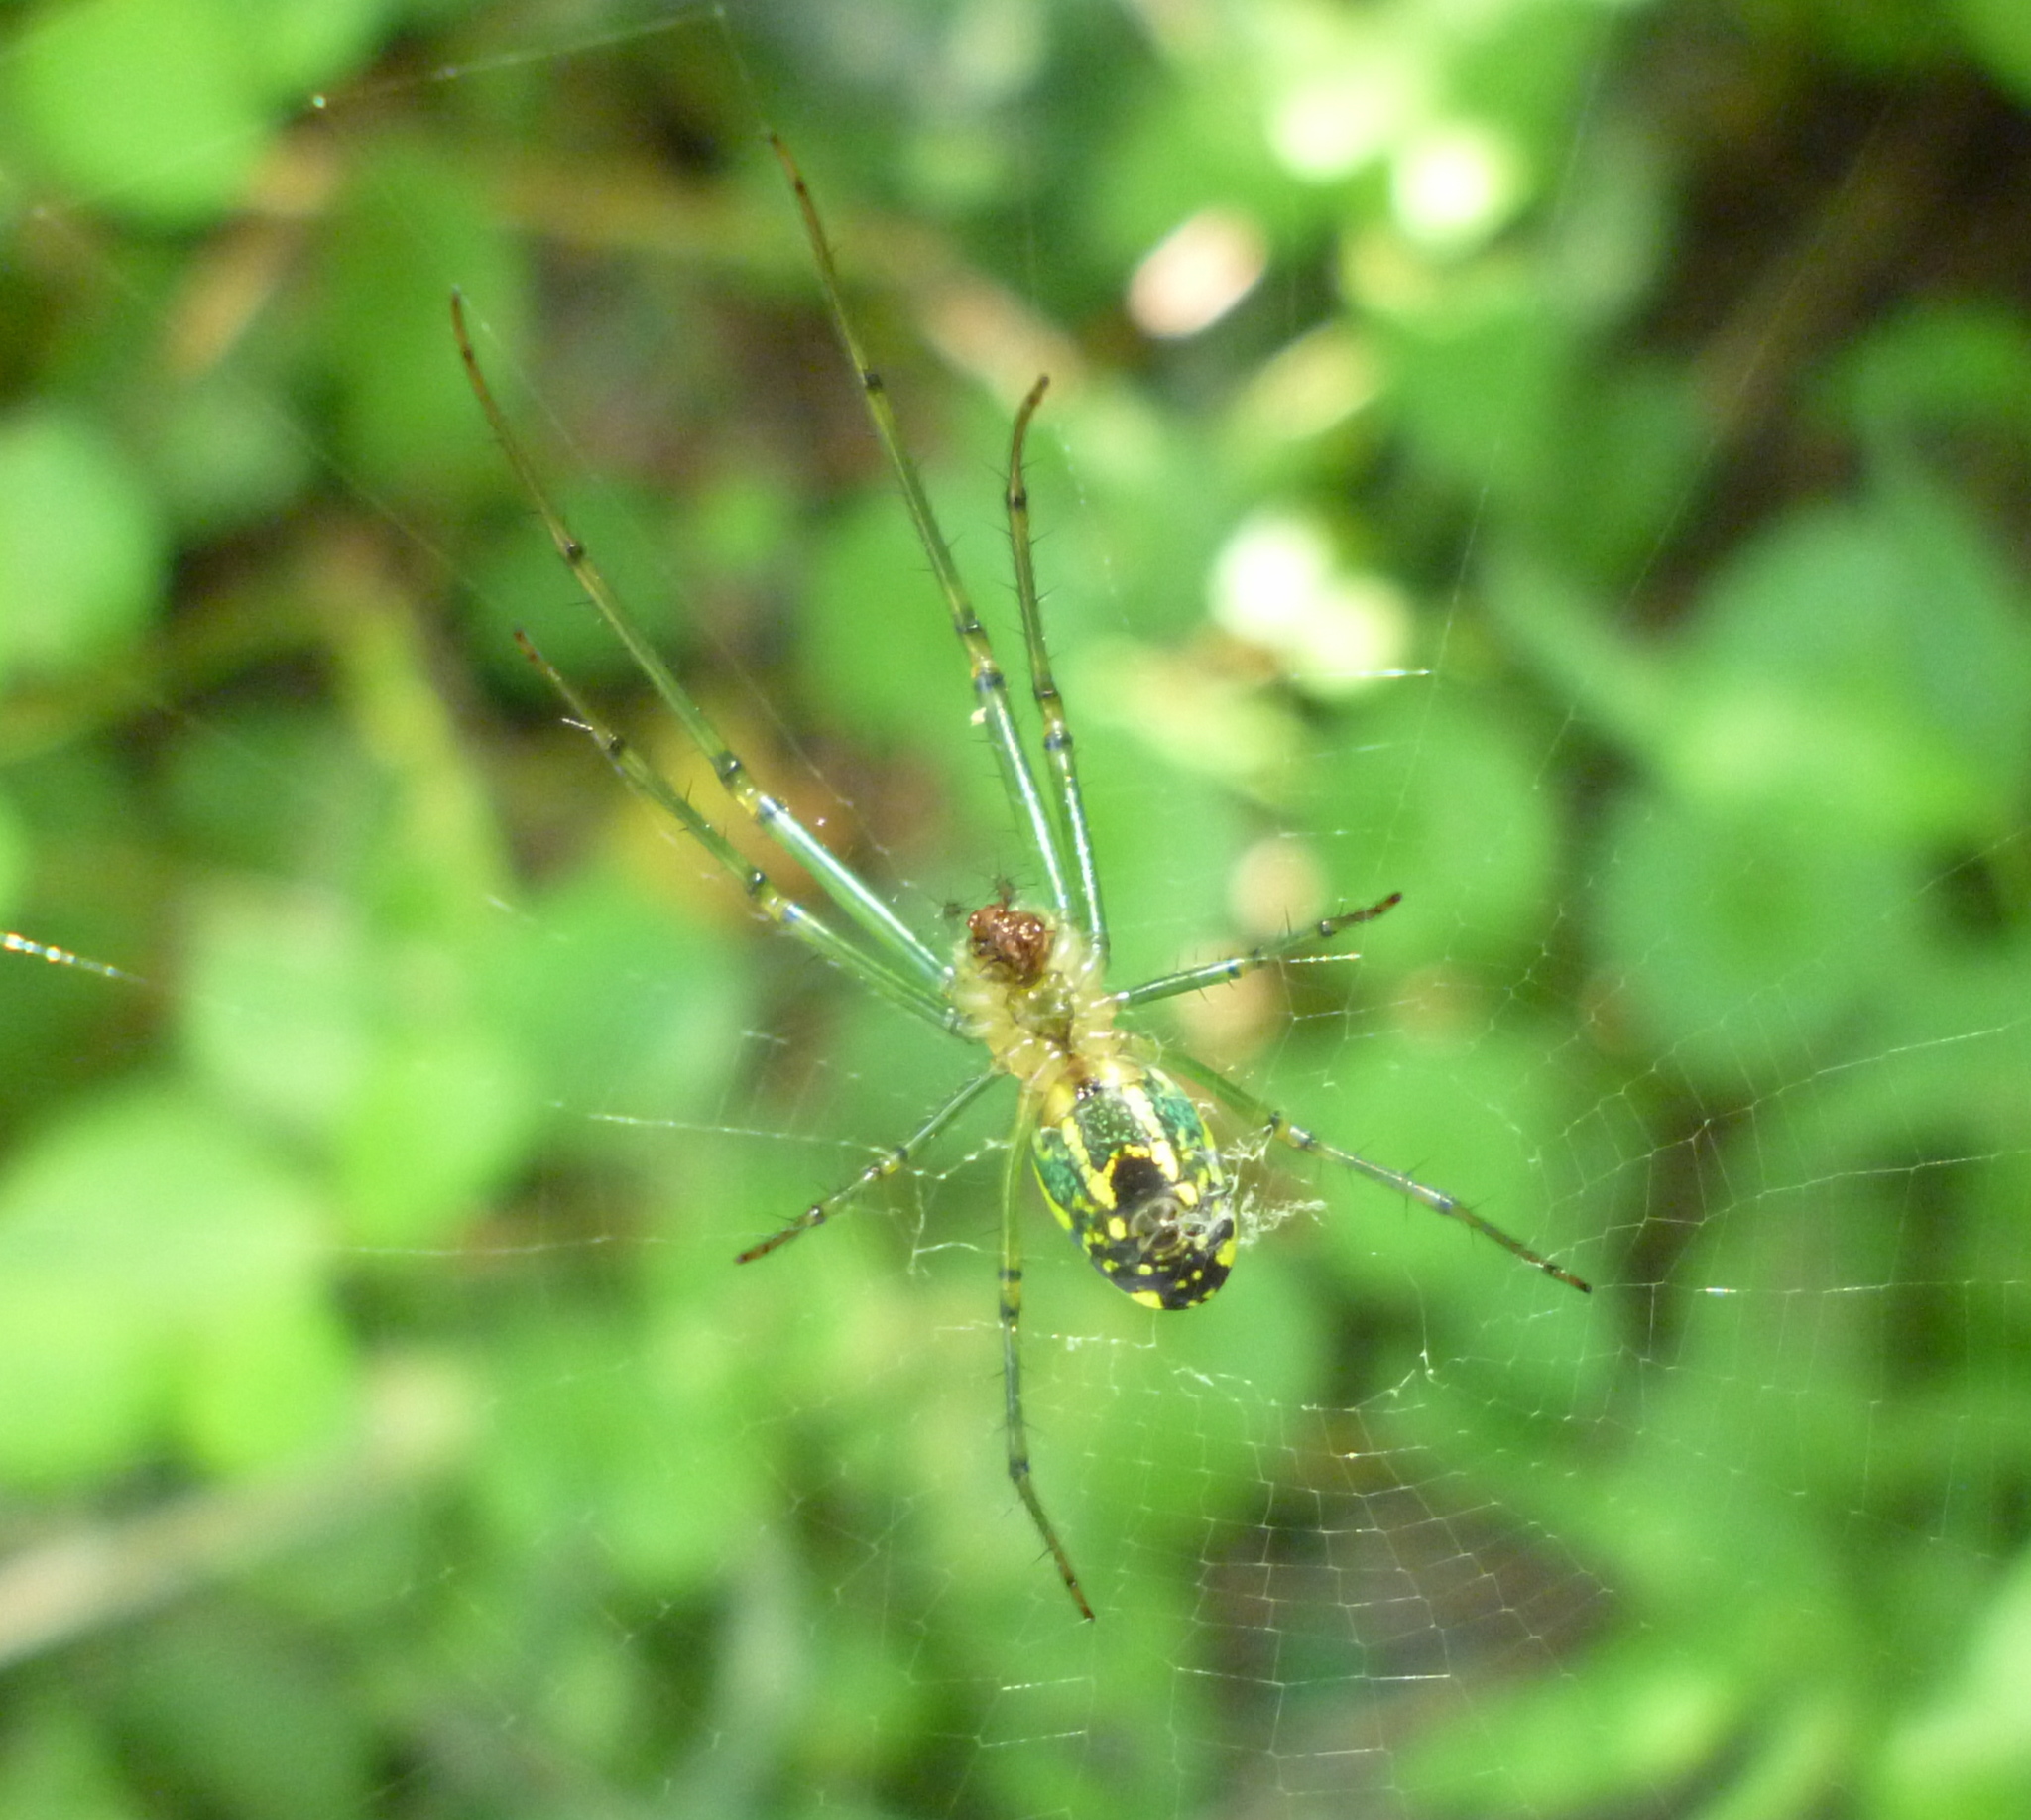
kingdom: Animalia
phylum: Arthropoda
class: Arachnida
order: Araneae
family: Tetragnathidae
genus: Leucauge
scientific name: Leucauge venusta
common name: Longjawed orb weavers
